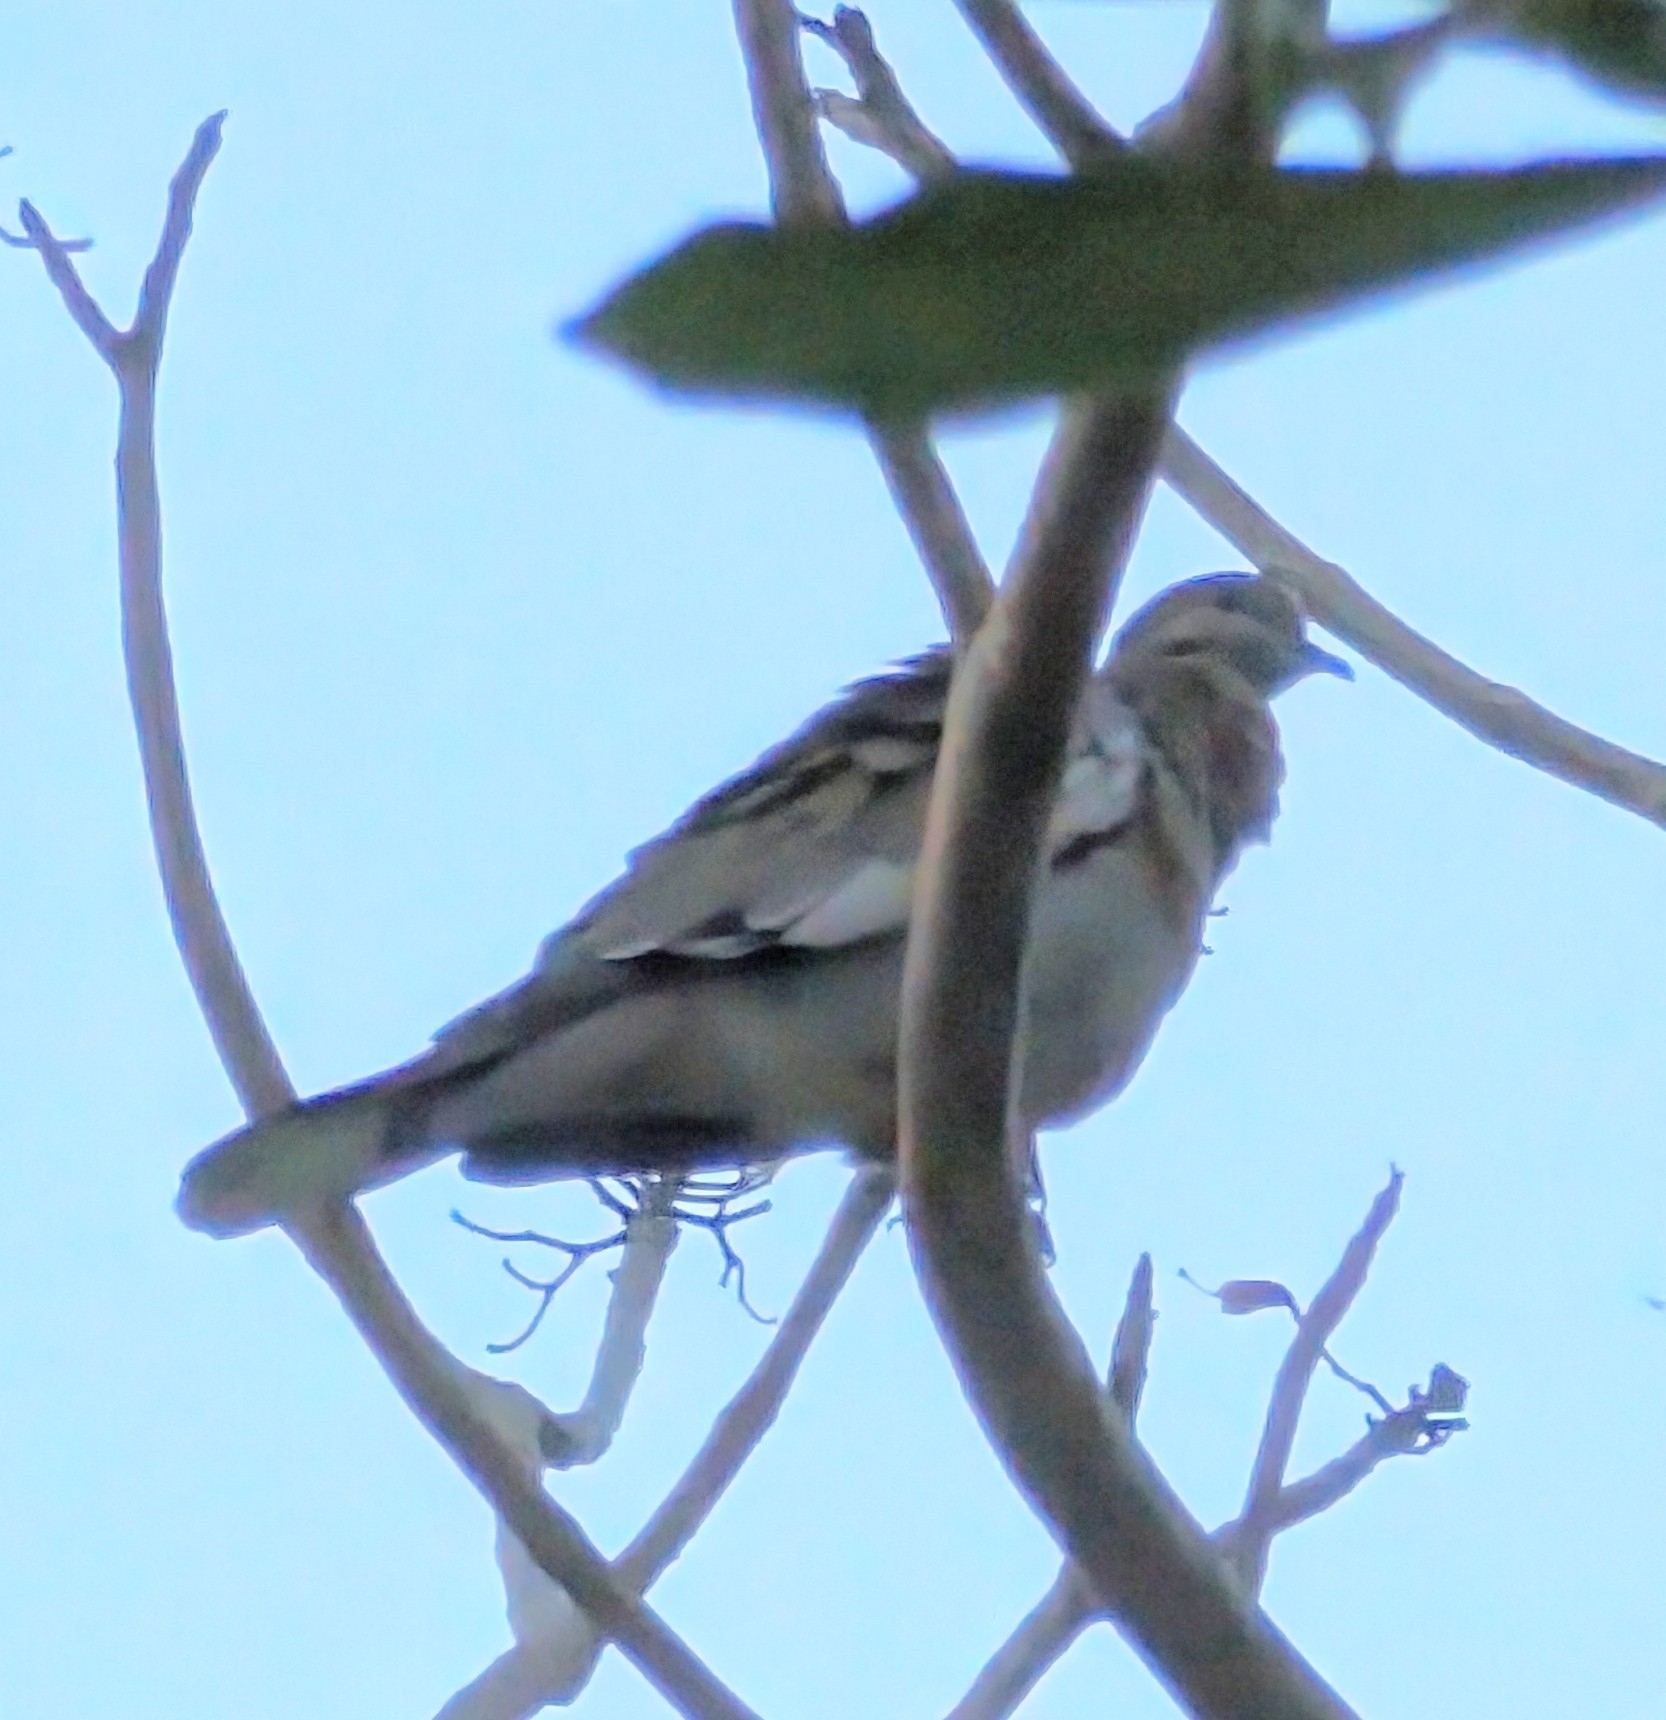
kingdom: Animalia
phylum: Chordata
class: Aves
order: Columbiformes
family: Columbidae
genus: Zenaida
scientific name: Zenaida asiatica
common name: White-winged dove
